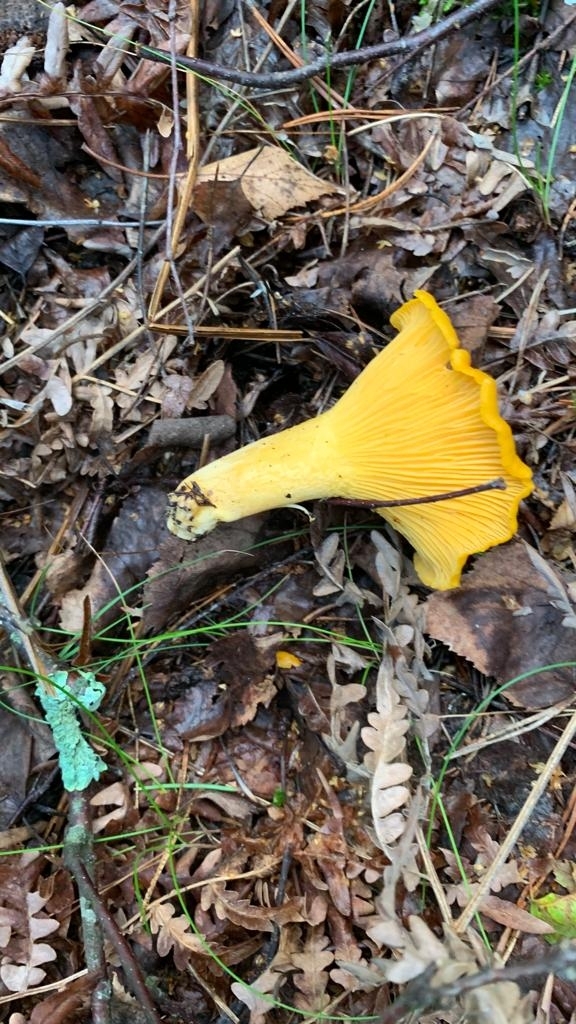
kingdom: Fungi
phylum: Basidiomycota
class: Agaricomycetes
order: Cantharellales
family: Hydnaceae
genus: Cantharellus
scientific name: Cantharellus cibarius
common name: Chanterelle
